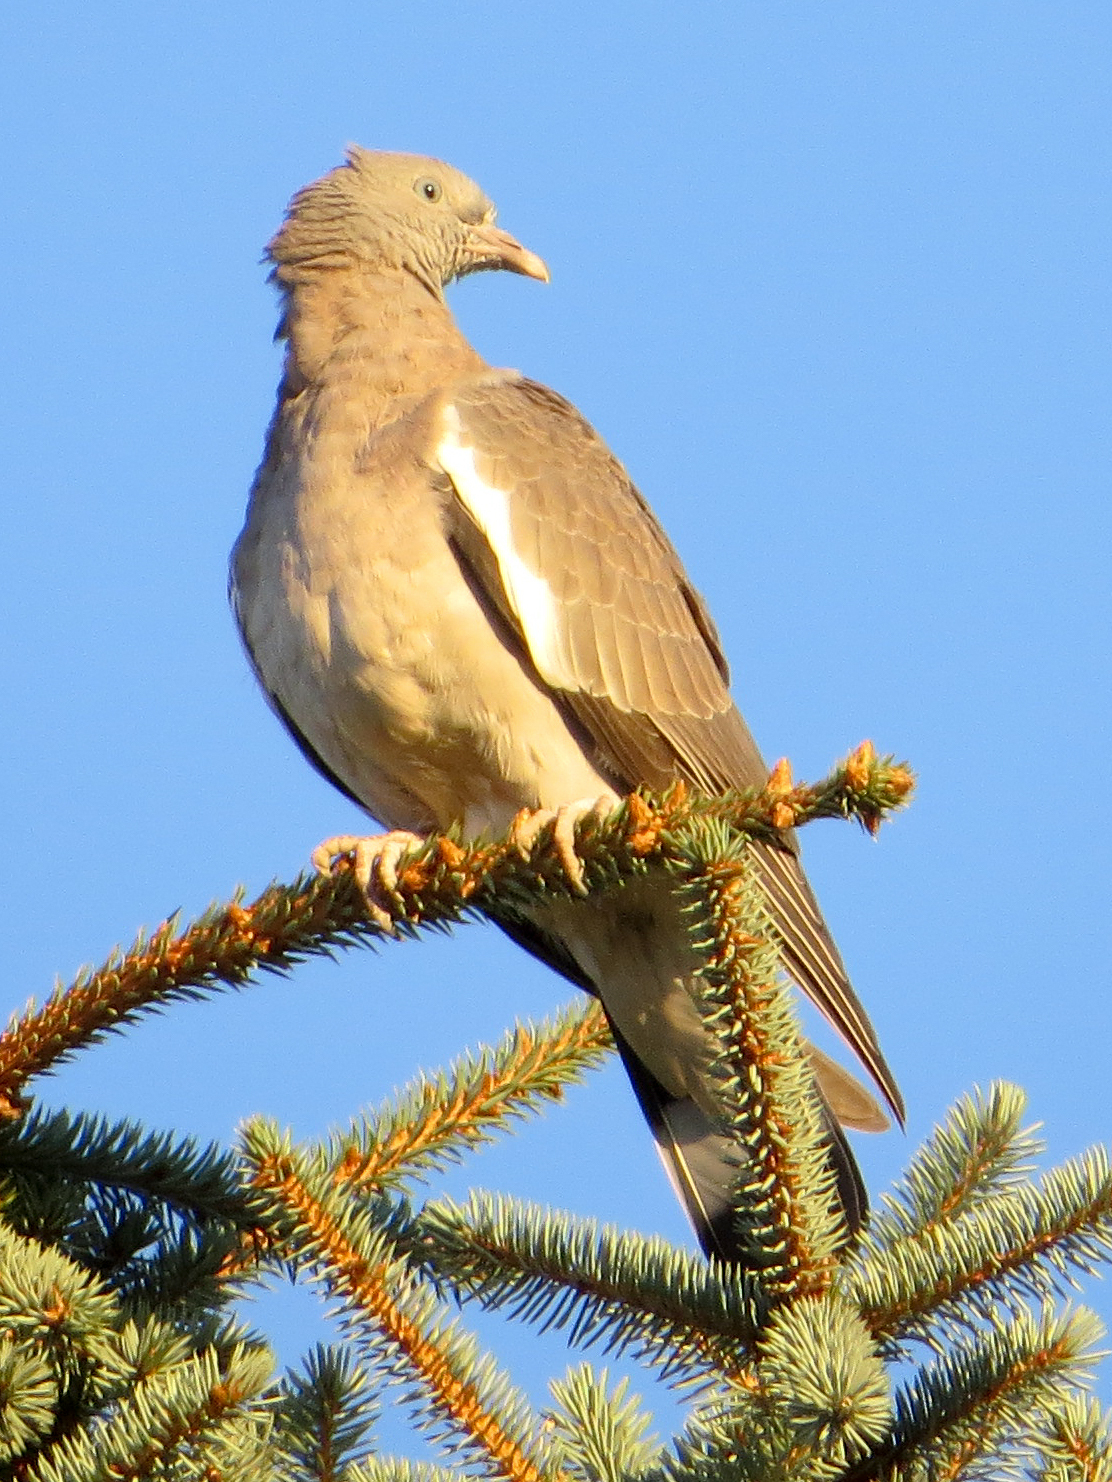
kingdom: Animalia
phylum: Chordata
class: Aves
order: Columbiformes
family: Columbidae
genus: Columba
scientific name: Columba palumbus
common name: Common wood pigeon
